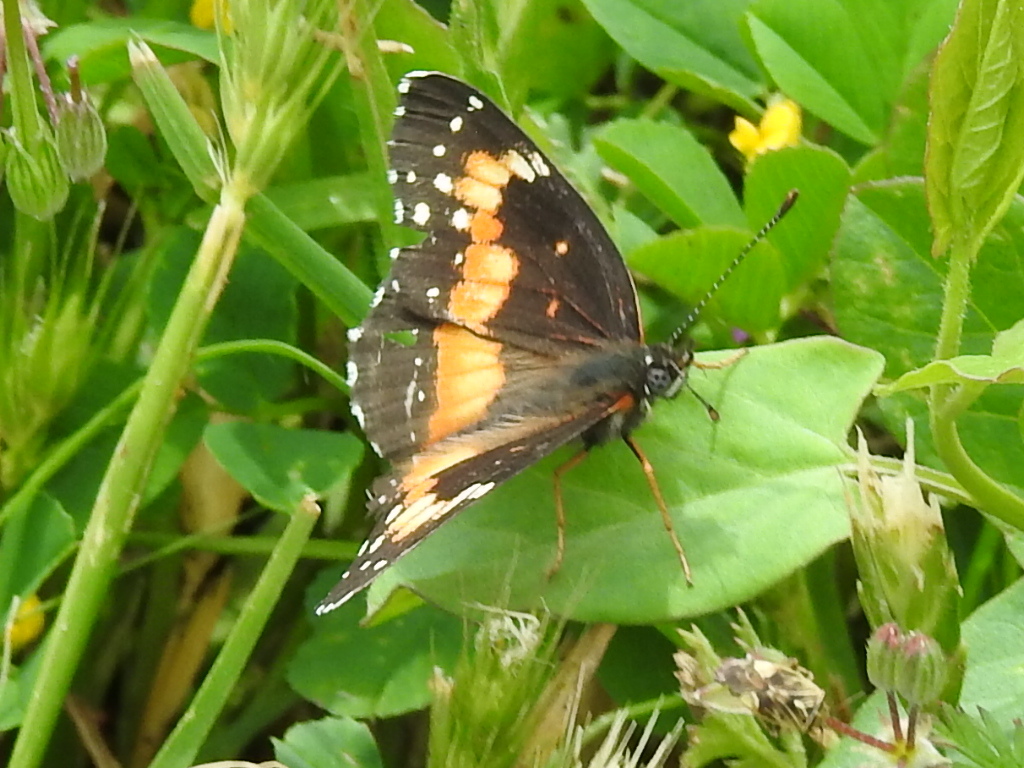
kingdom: Animalia
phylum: Arthropoda
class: Insecta
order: Lepidoptera
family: Nymphalidae
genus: Chlosyne
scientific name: Chlosyne lacinia
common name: Bordered patch
